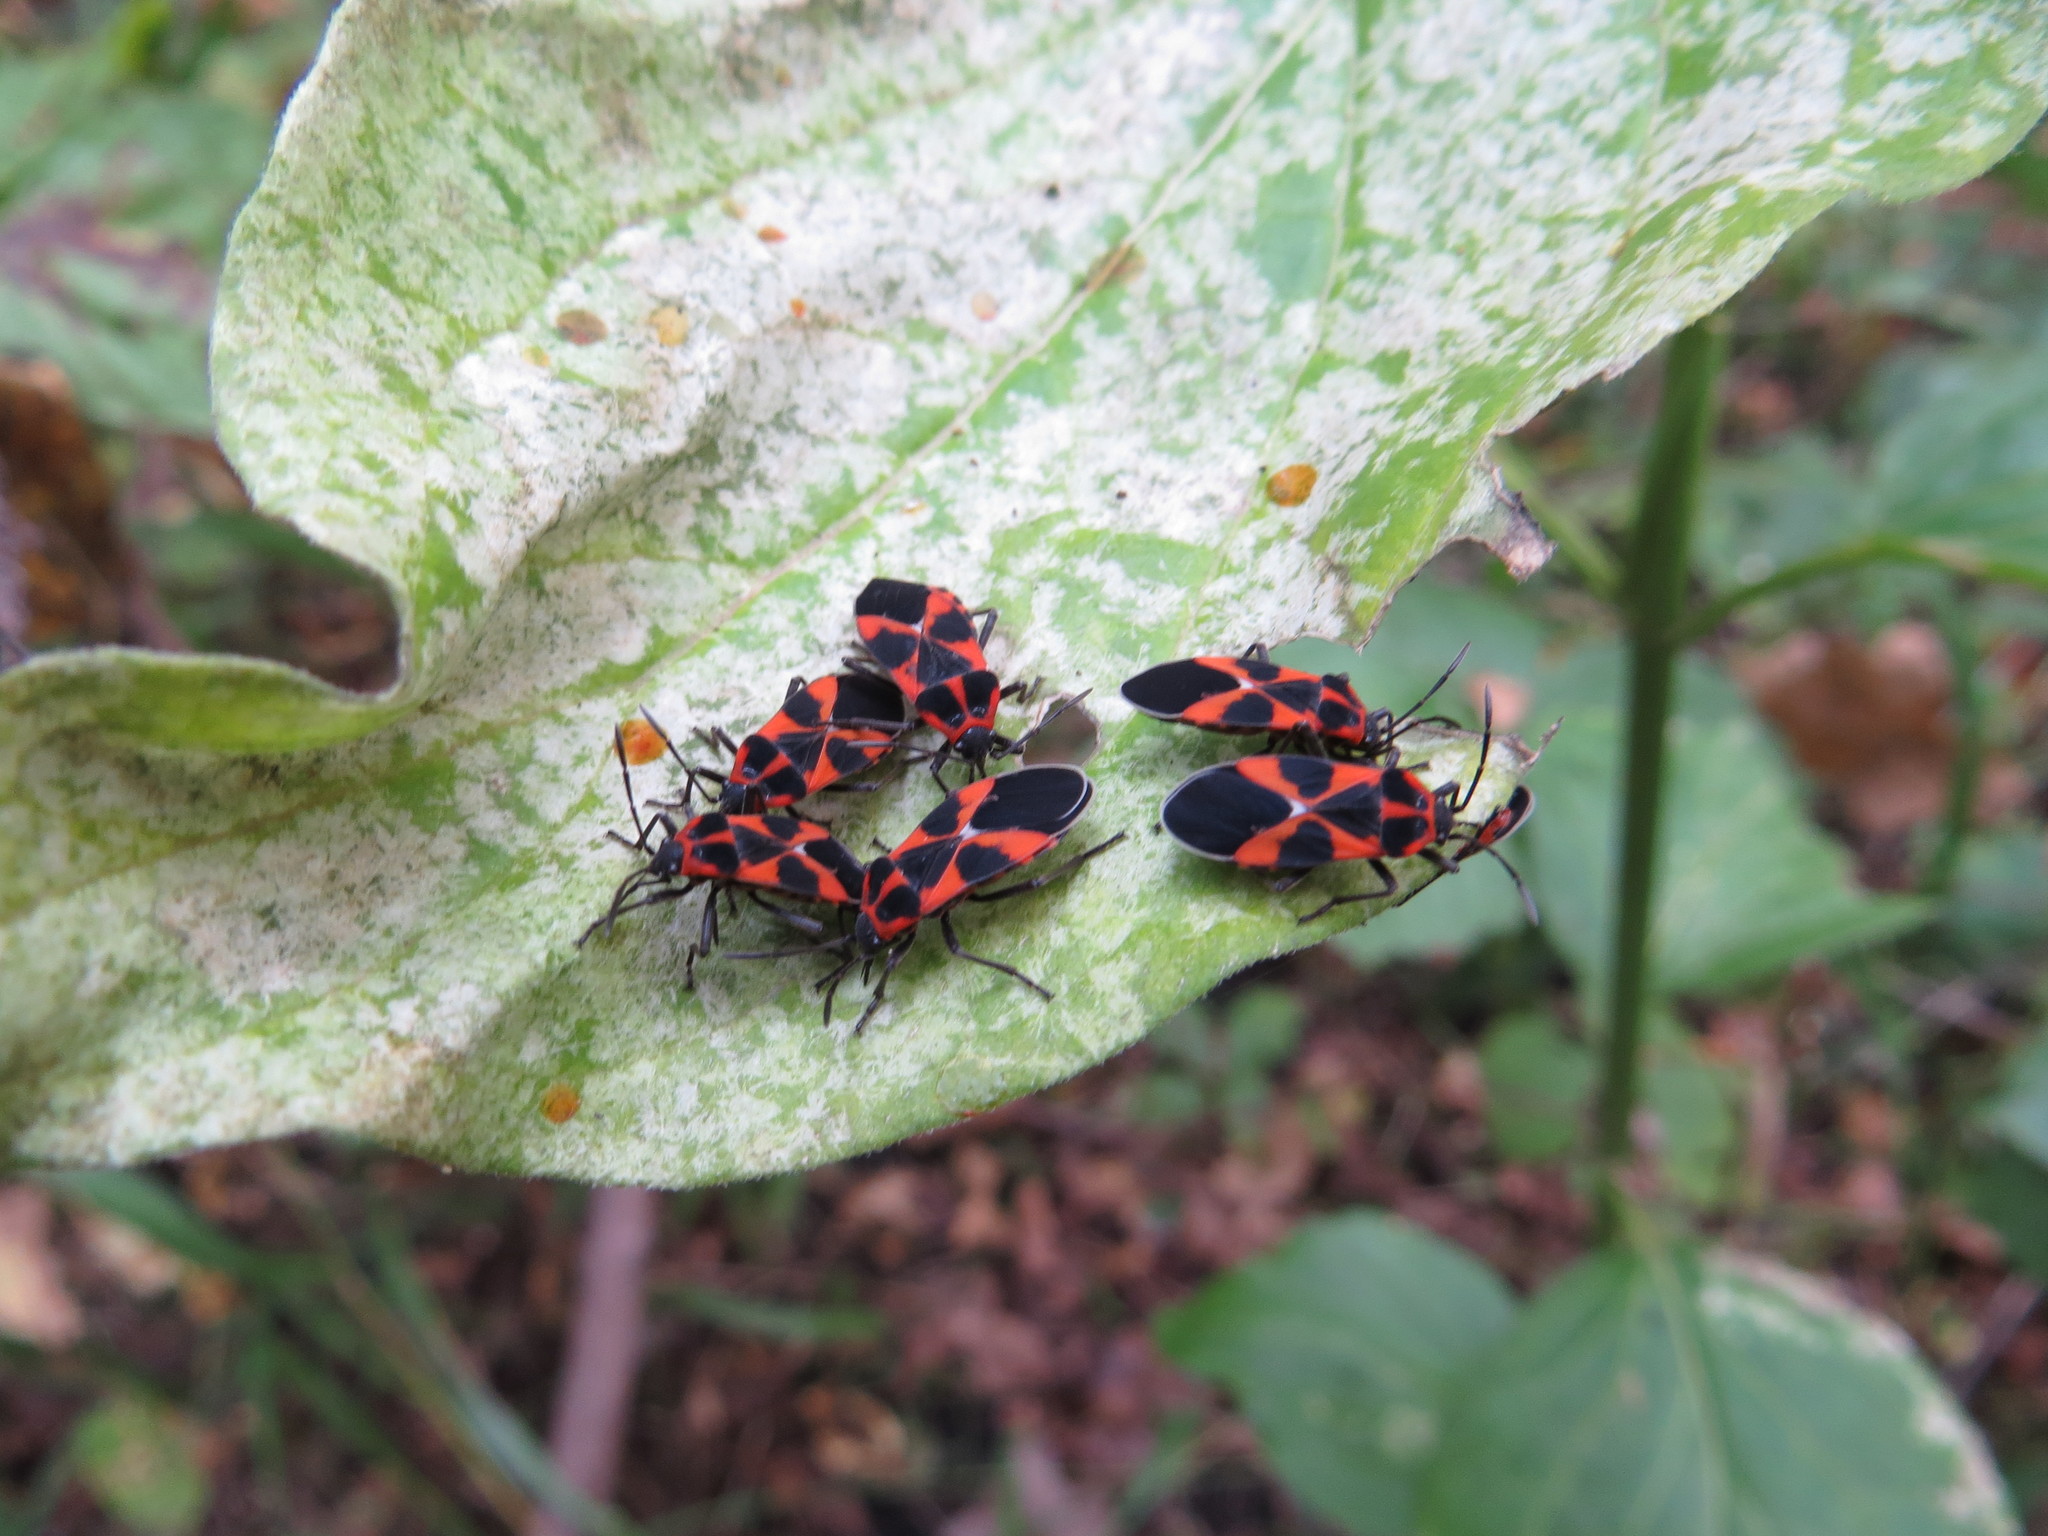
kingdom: Animalia
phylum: Arthropoda
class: Insecta
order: Hemiptera
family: Lygaeidae
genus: Tropidothorax
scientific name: Tropidothorax leucopterus
